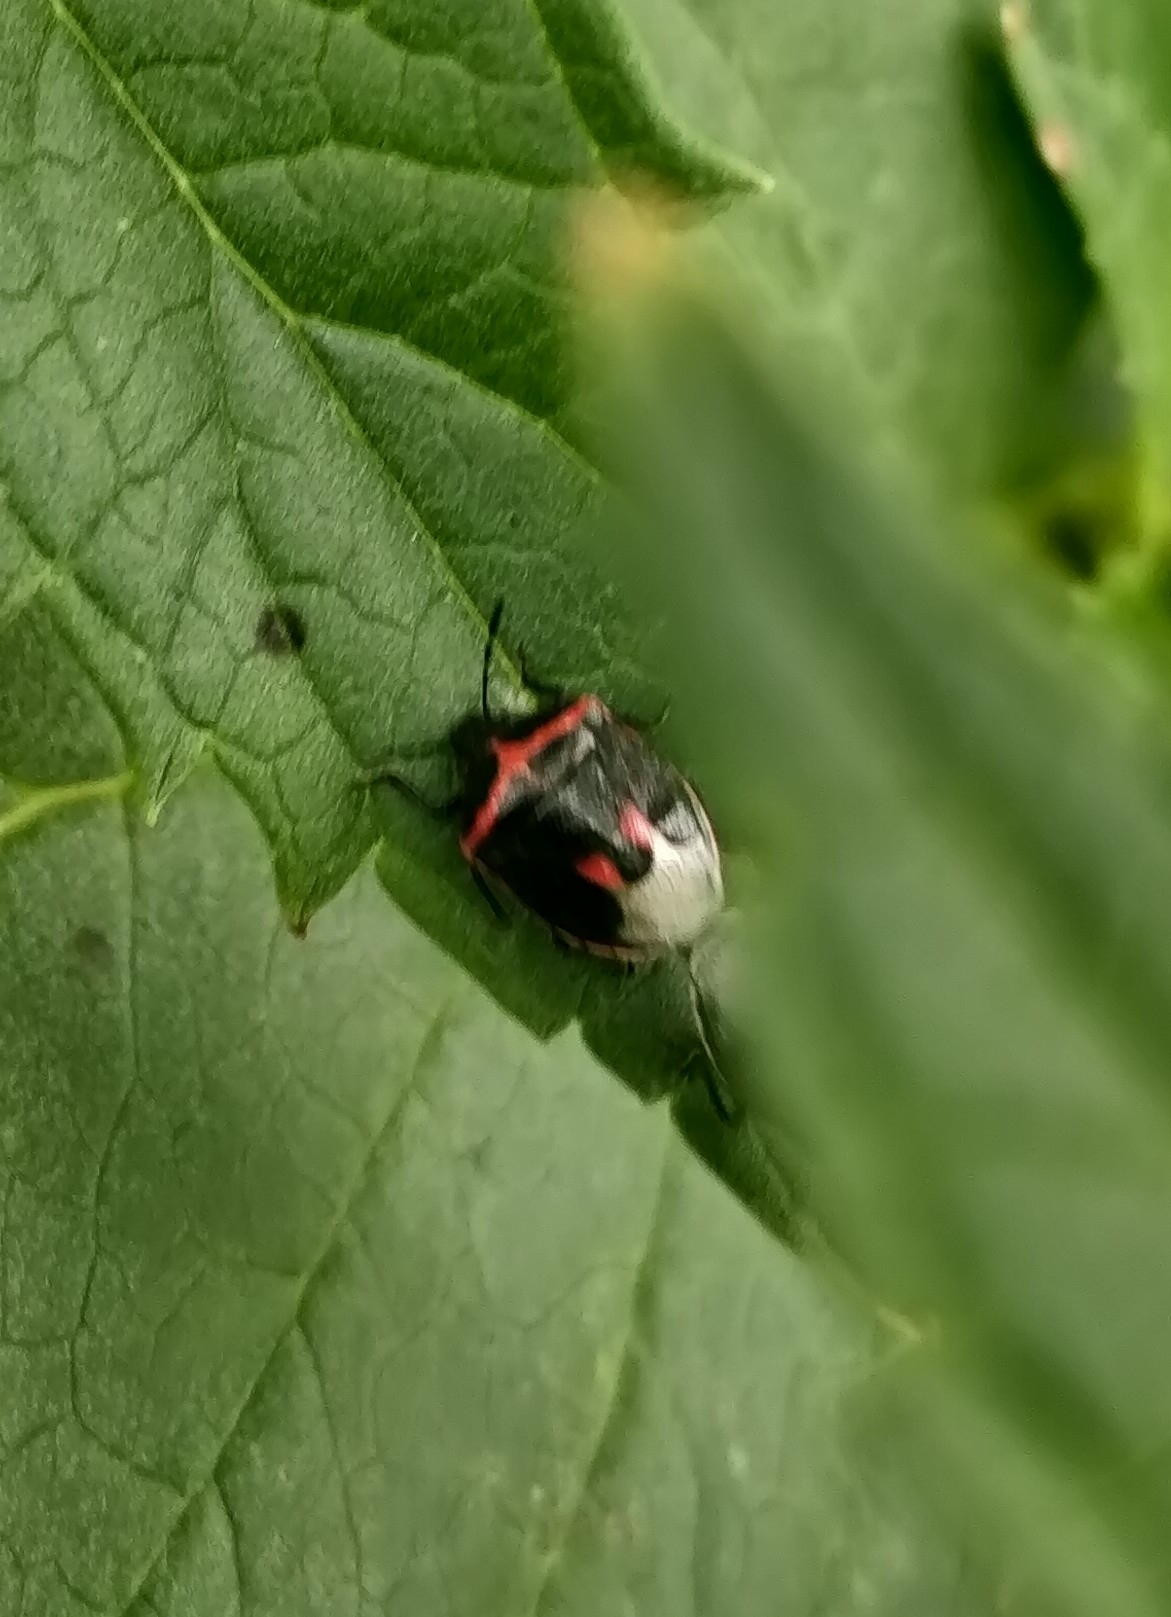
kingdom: Animalia
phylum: Arthropoda
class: Insecta
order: Hemiptera
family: Pentatomidae
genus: Cosmopepla
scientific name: Cosmopepla lintneriana
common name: Twice-stabbed stink bug
